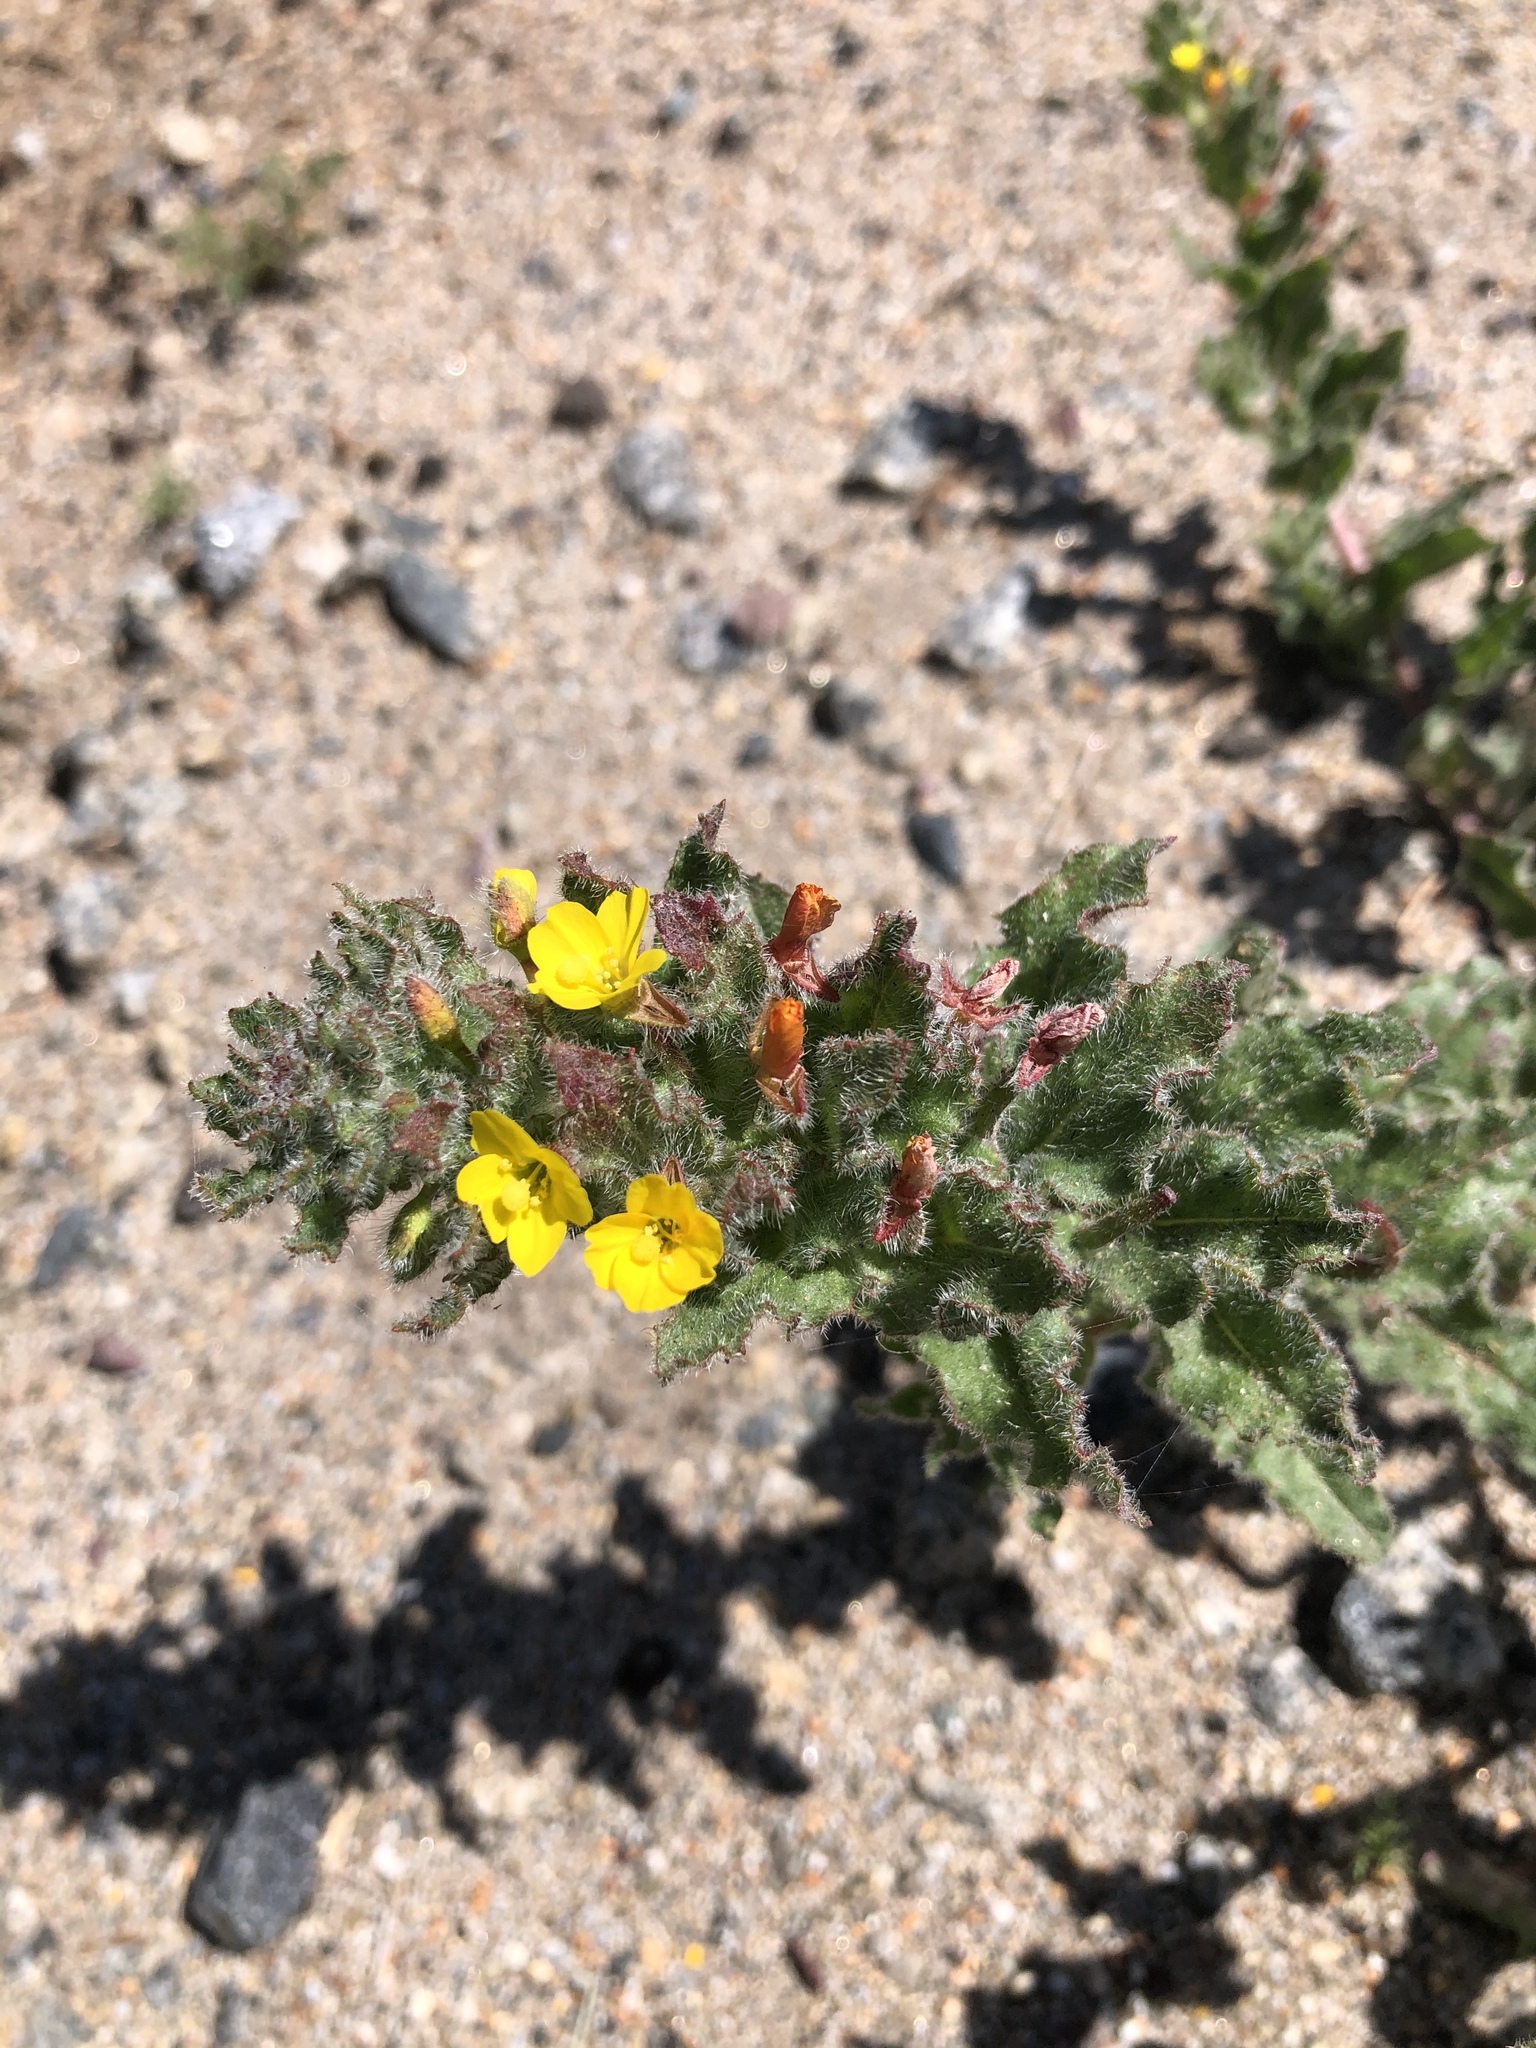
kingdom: Plantae
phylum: Tracheophyta
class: Magnoliopsida
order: Myrtales
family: Onagraceae
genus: Camissoniopsis
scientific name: Camissoniopsis hirtella
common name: Santa cruz island suncup
